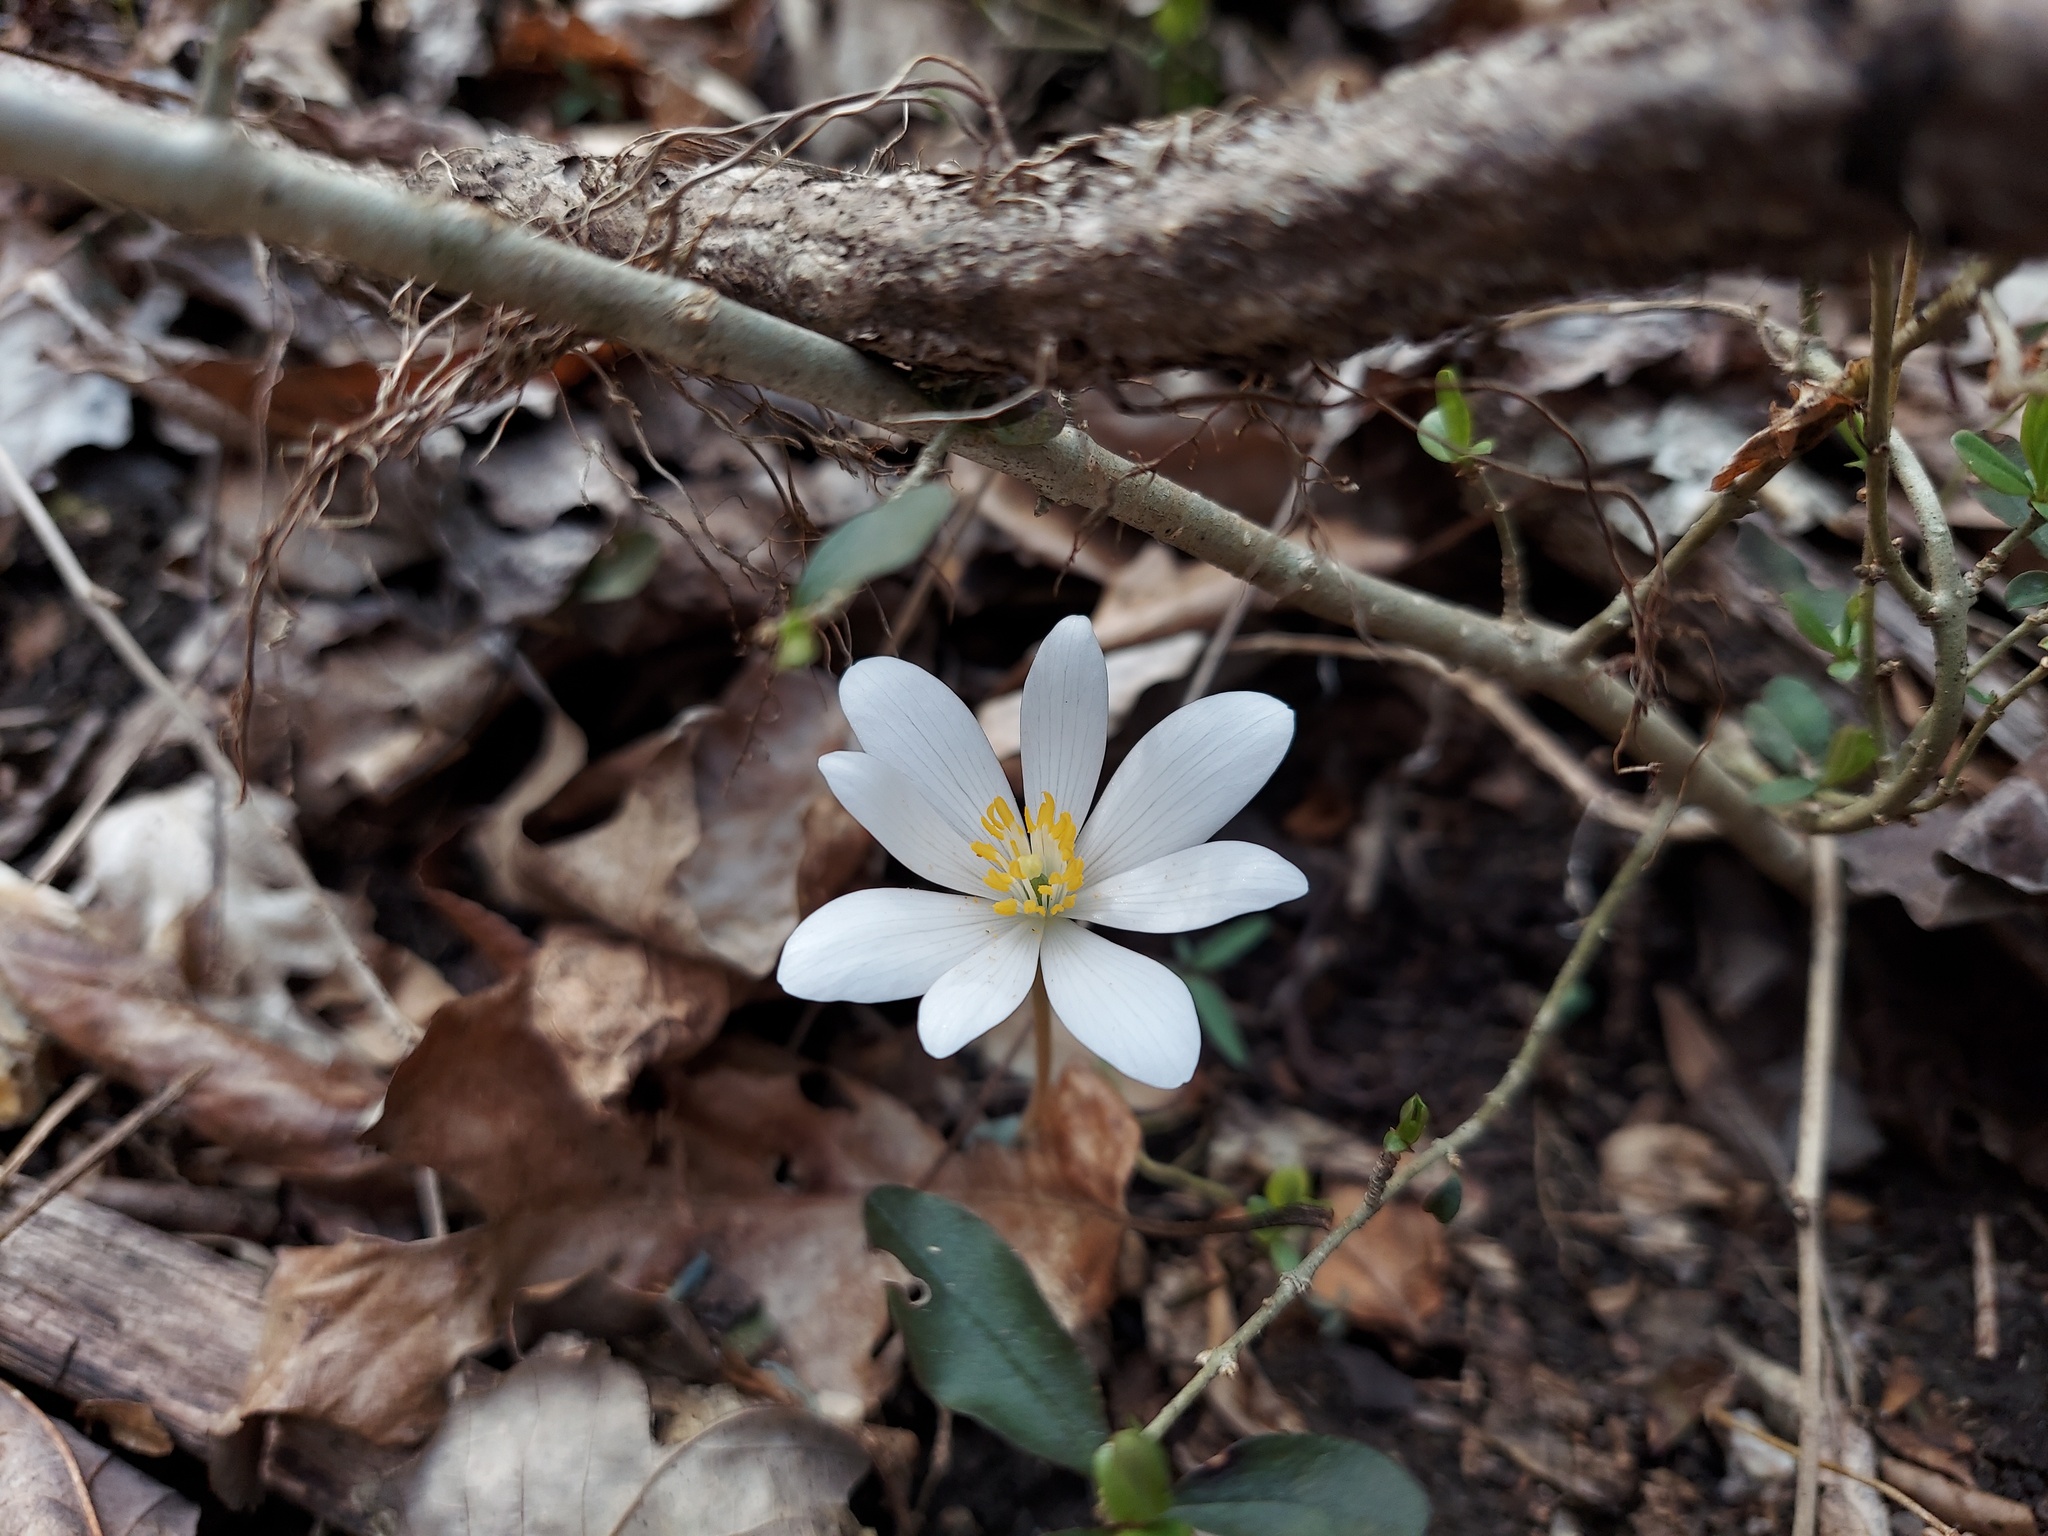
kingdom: Plantae
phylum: Tracheophyta
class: Magnoliopsida
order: Ranunculales
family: Papaveraceae
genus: Sanguinaria
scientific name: Sanguinaria canadensis
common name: Bloodroot
